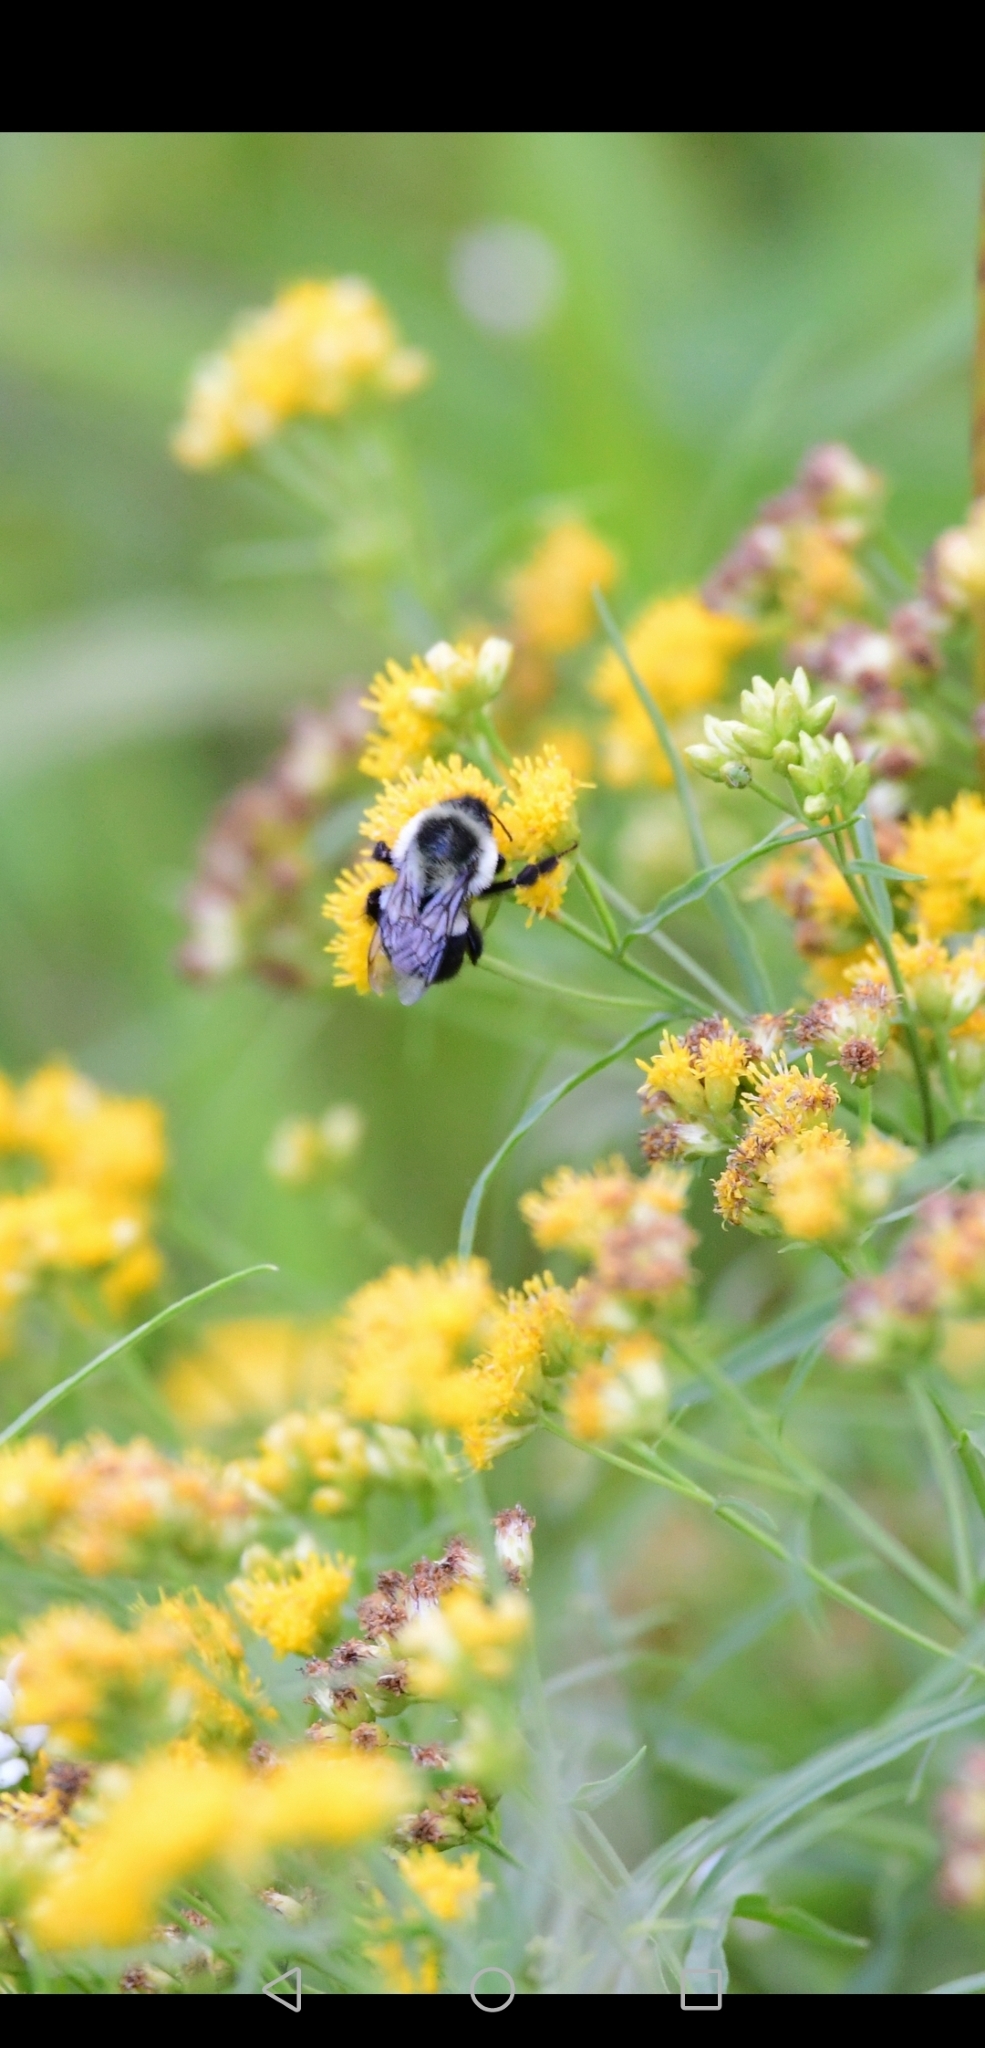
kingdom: Animalia
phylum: Arthropoda
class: Insecta
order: Hymenoptera
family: Apidae
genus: Bombus
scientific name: Bombus impatiens
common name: Common eastern bumble bee
